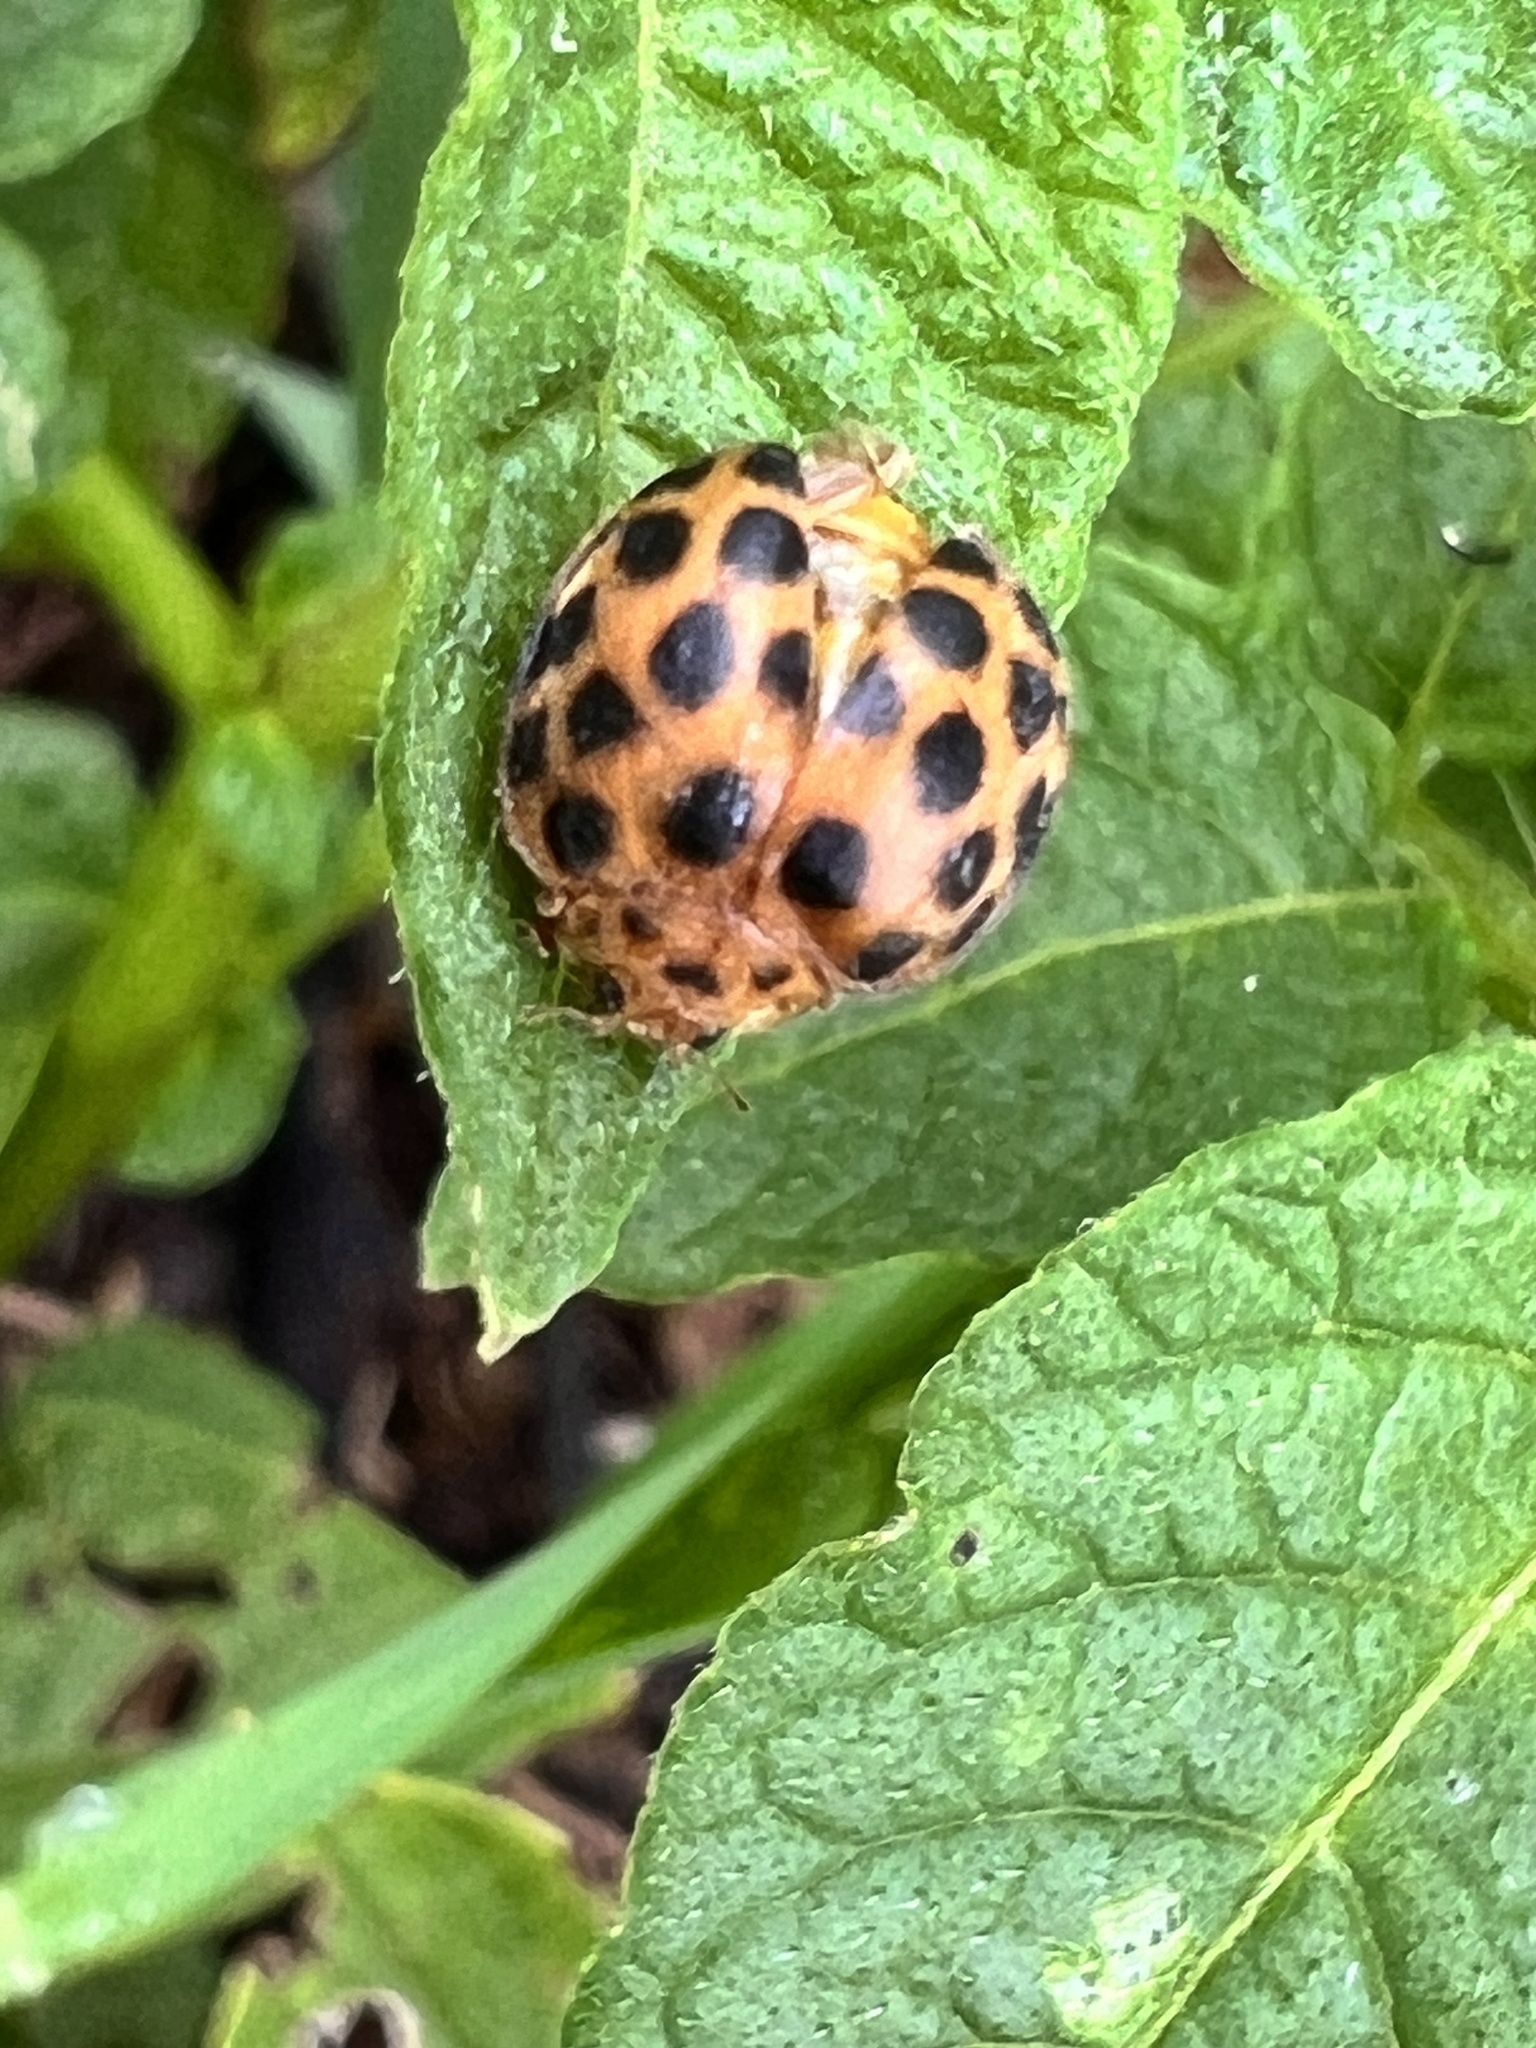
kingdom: Animalia
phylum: Arthropoda
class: Insecta
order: Coleoptera
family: Coccinellidae
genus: Henosepilachna
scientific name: Henosepilachna vigintioctopunctata
